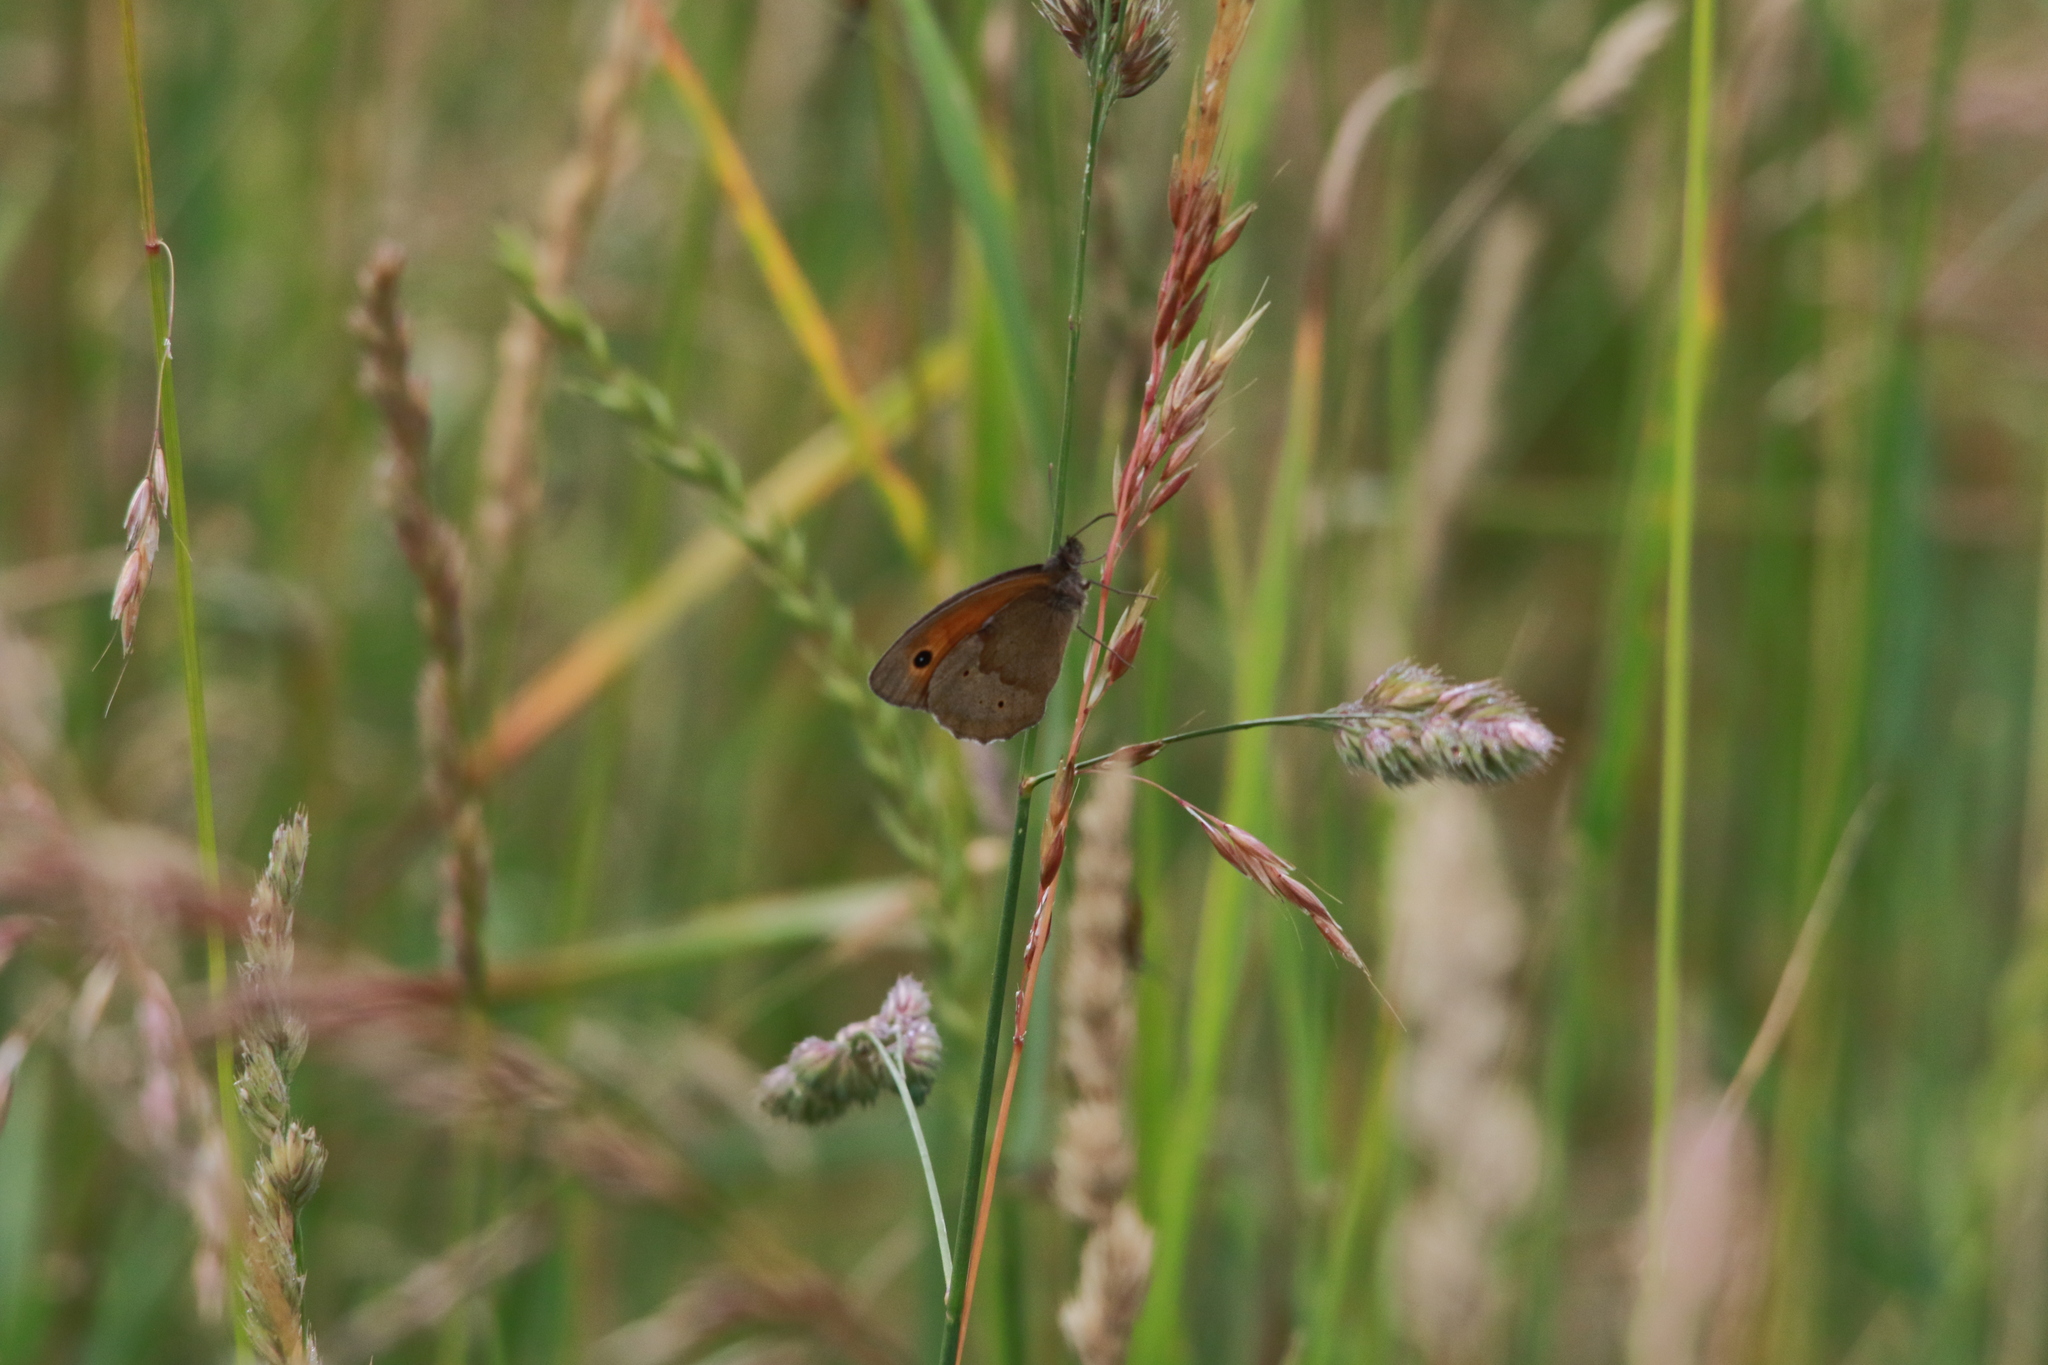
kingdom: Animalia
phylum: Arthropoda
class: Insecta
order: Lepidoptera
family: Nymphalidae
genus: Maniola
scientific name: Maniola jurtina
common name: Meadow brown
